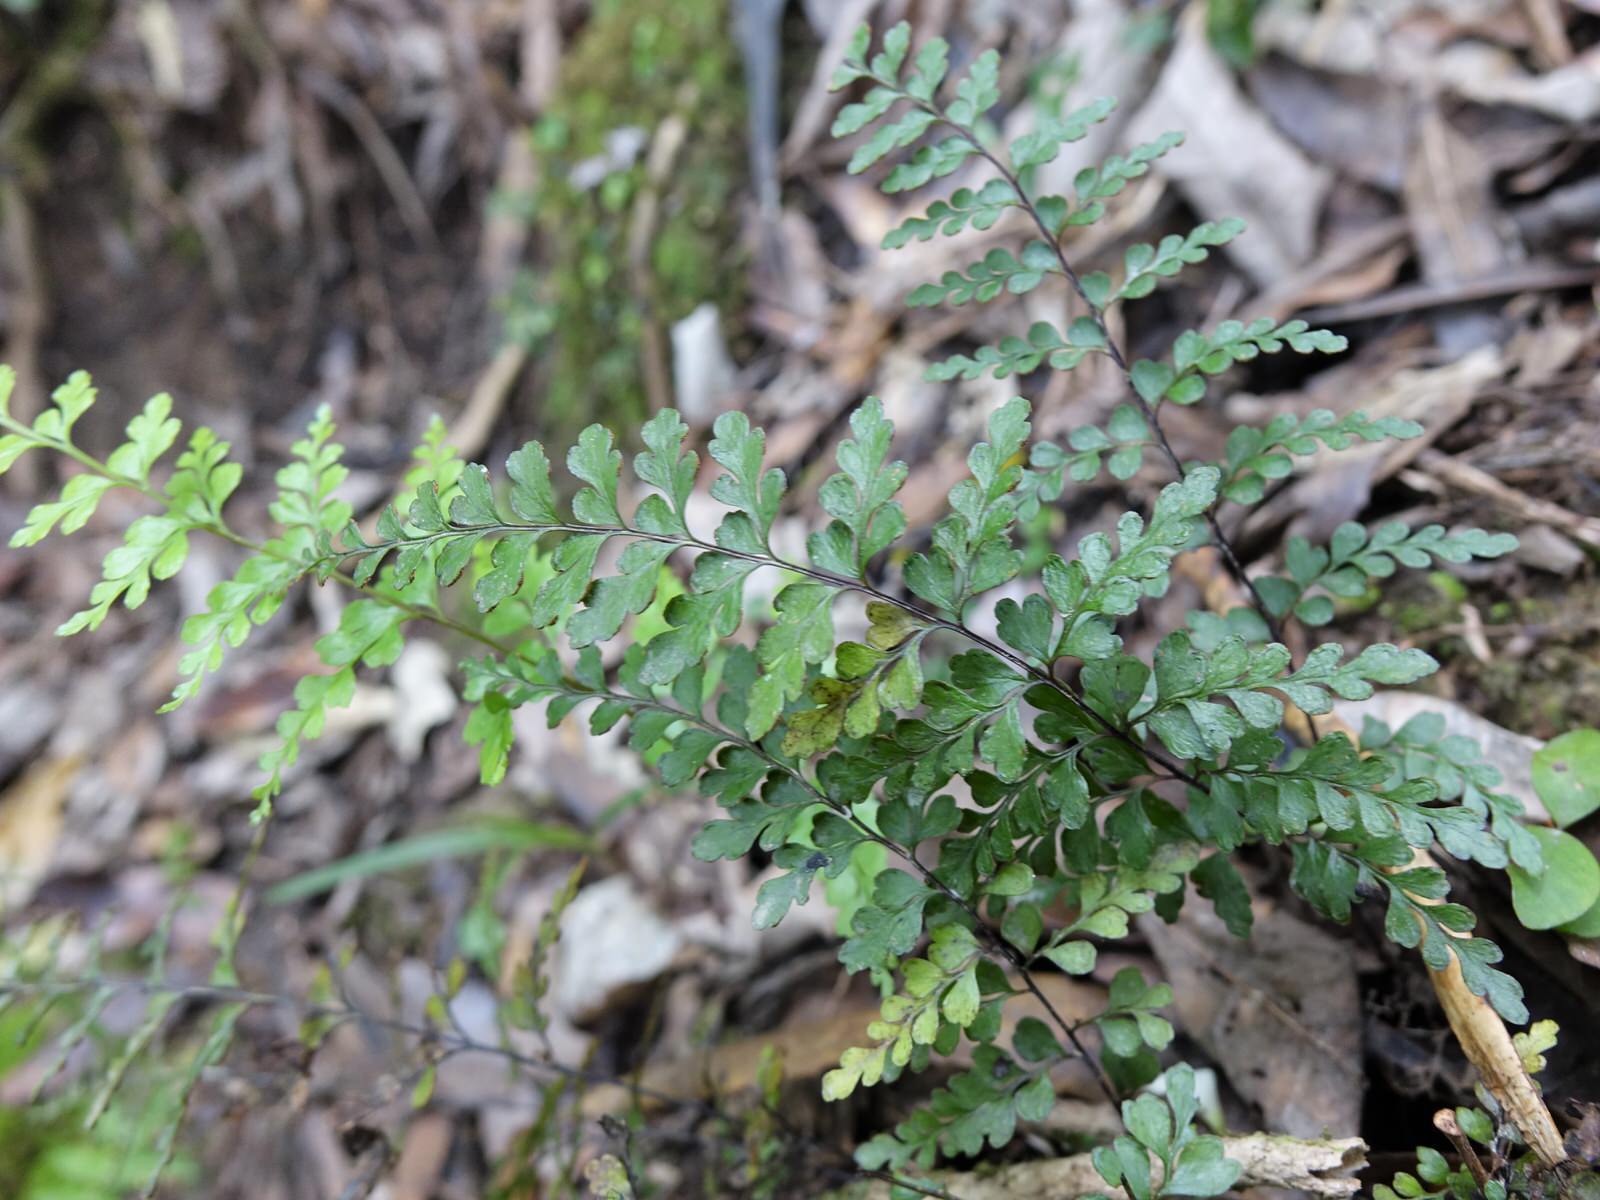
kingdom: Plantae
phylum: Tracheophyta
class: Polypodiopsida
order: Polypodiales
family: Lindsaeaceae
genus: Lindsaea
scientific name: Lindsaea trichomanoides
